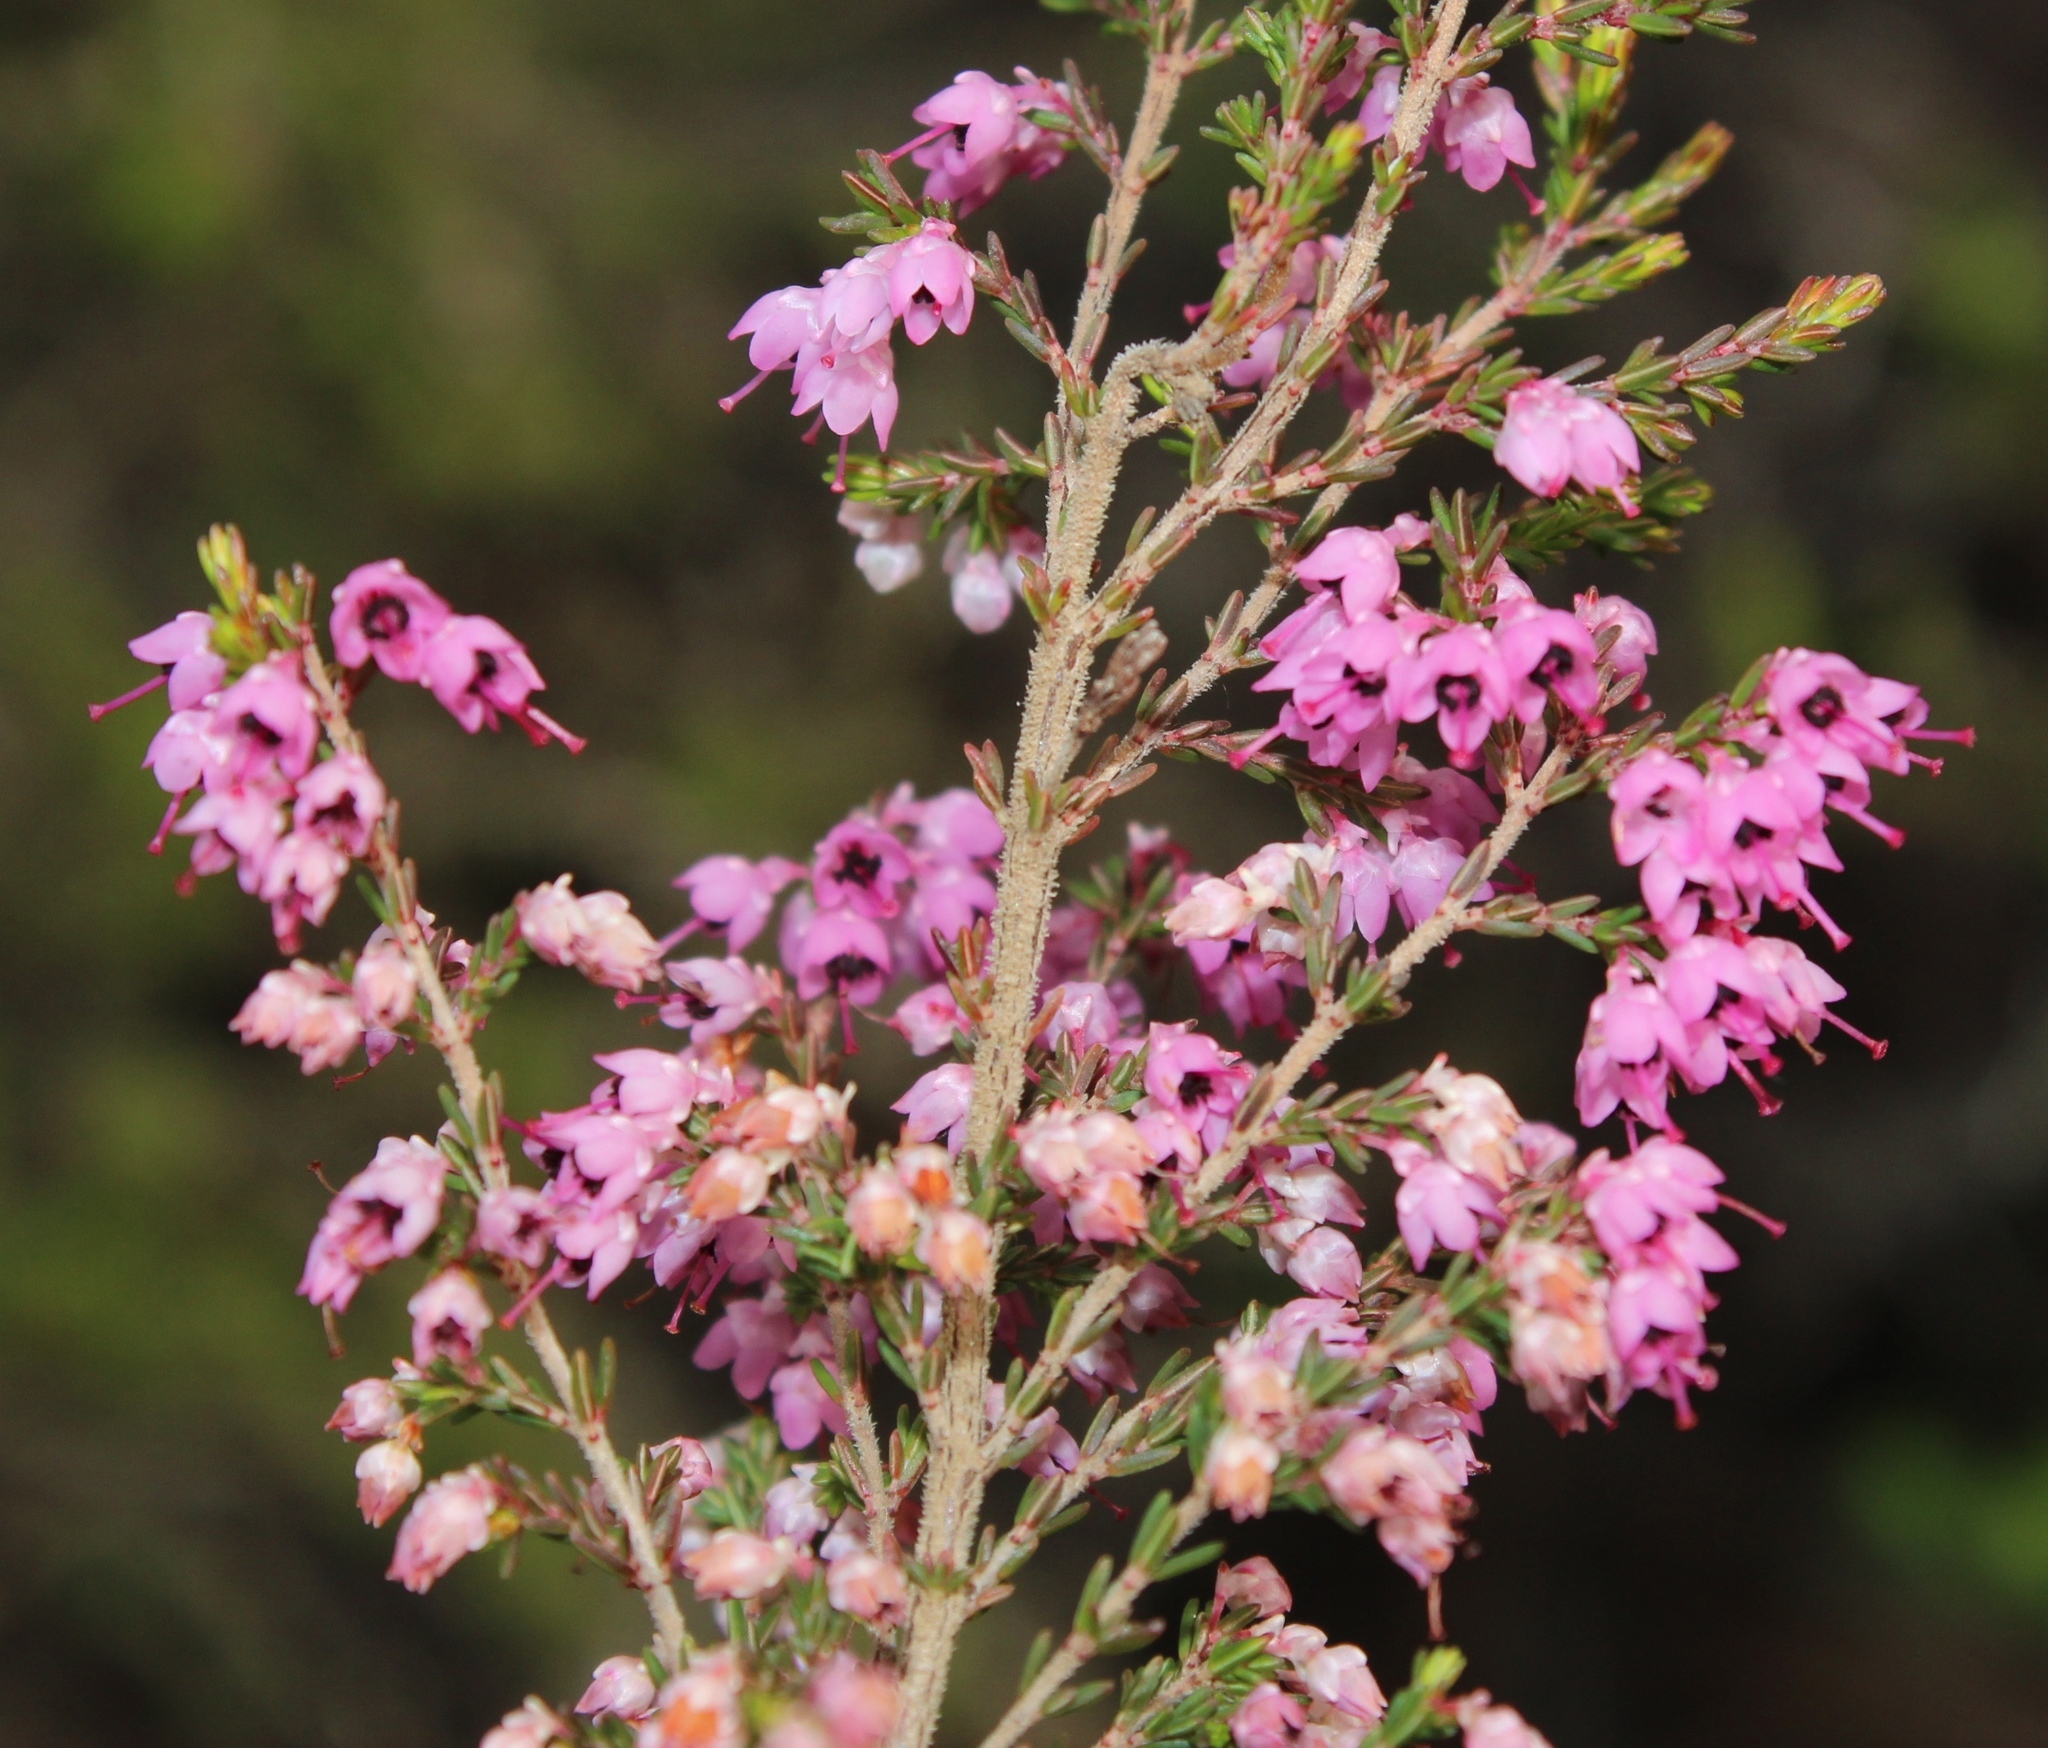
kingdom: Plantae
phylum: Tracheophyta
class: Magnoliopsida
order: Ericales
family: Ericaceae
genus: Erica
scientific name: Erica sparsa
